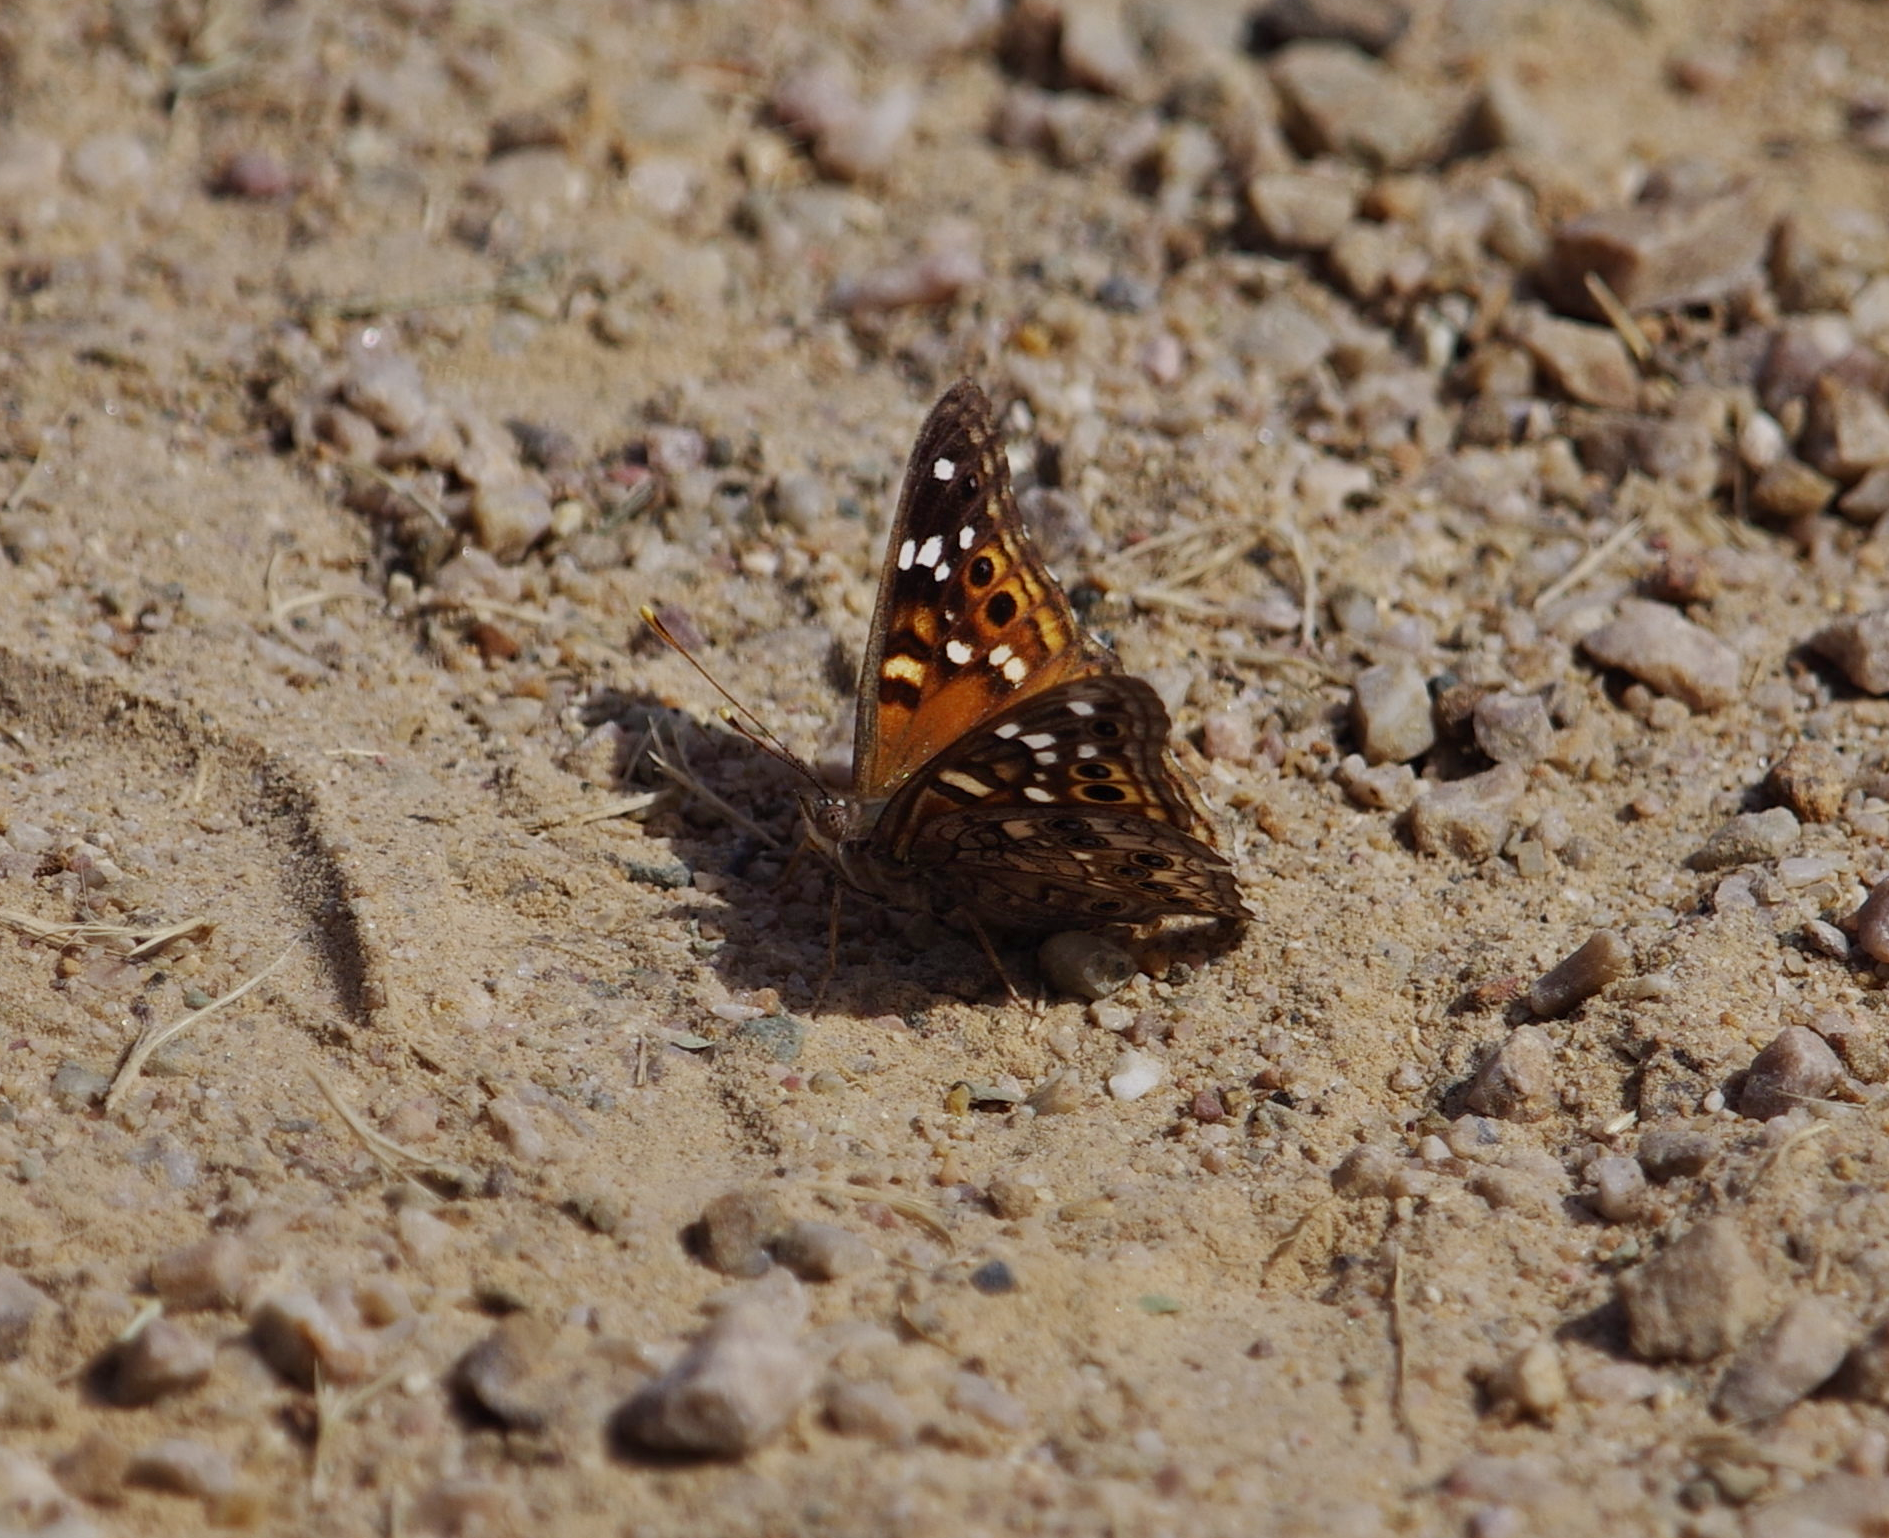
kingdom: Animalia
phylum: Arthropoda
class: Insecta
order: Lepidoptera
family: Nymphalidae
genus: Asterocampa
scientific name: Asterocampa leilia
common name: Empress leilia
